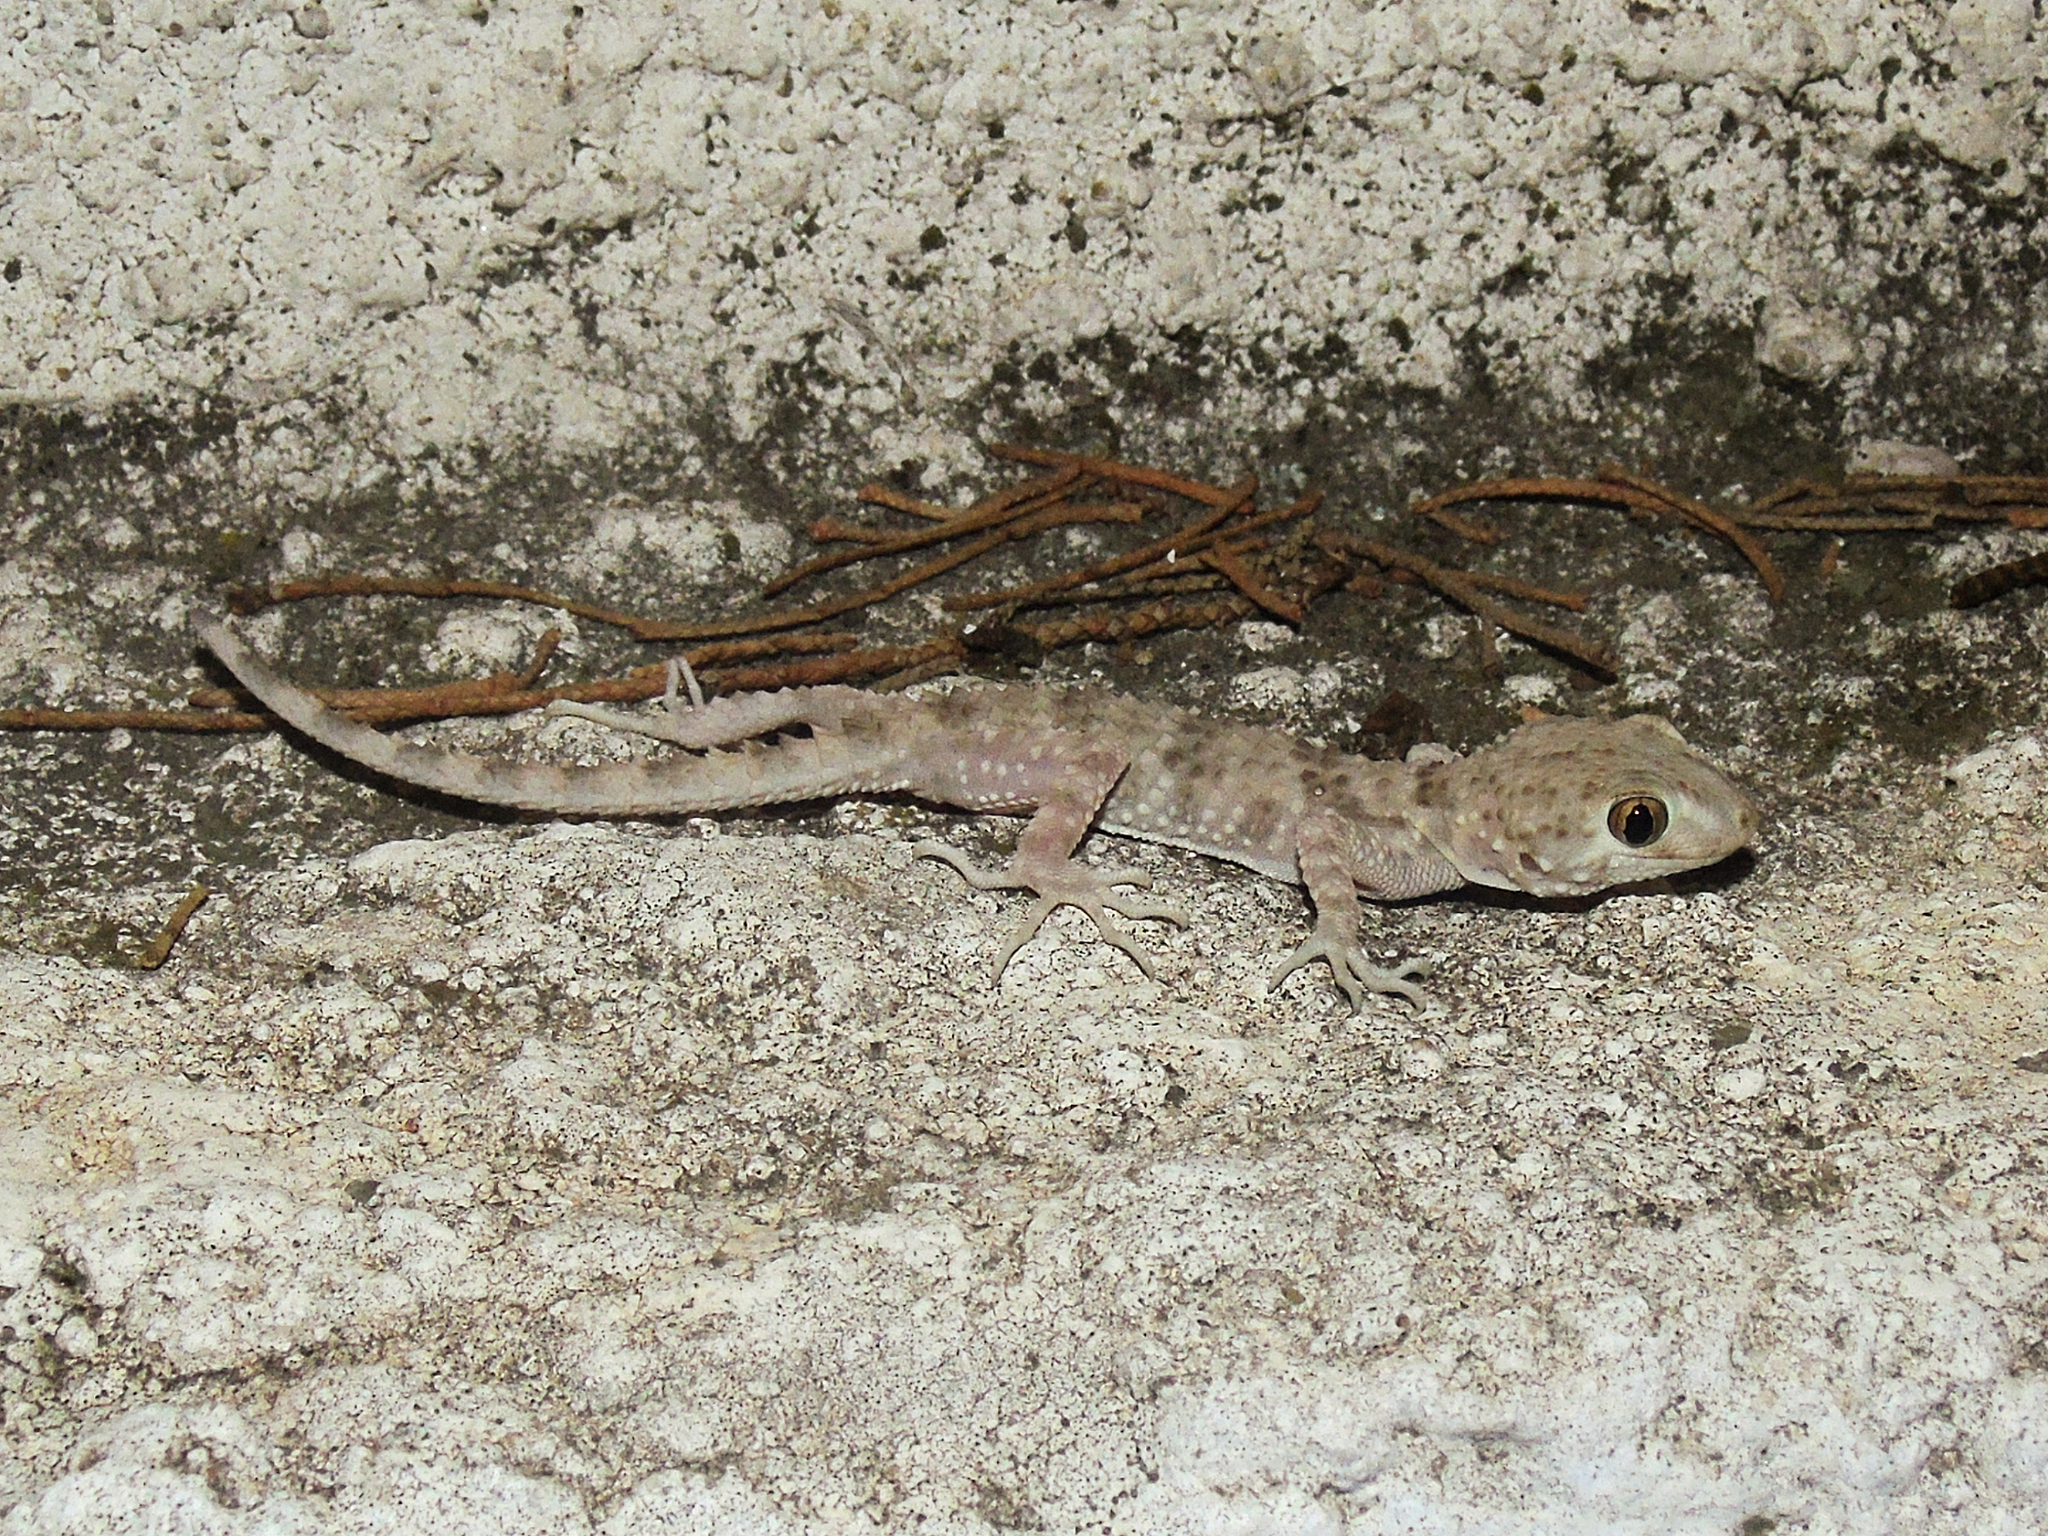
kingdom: Animalia
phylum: Chordata
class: Squamata
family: Gekkonidae
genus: Tenuidactylus
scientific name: Tenuidactylus caspius
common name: Caspian bent-toed gecko
